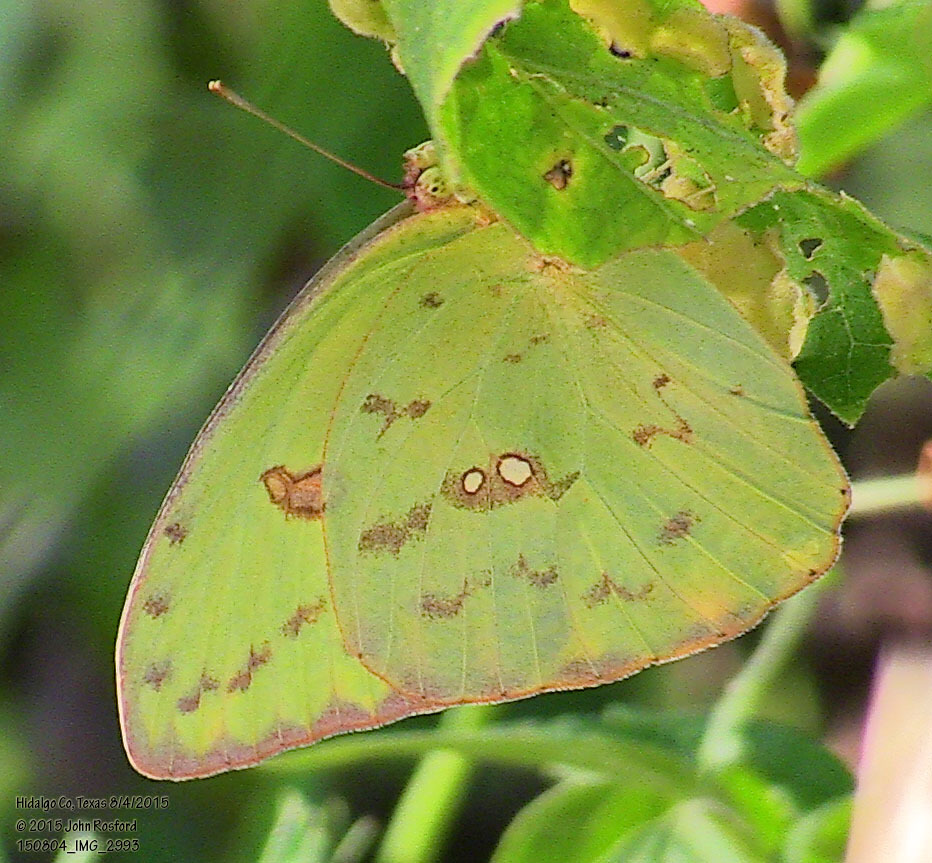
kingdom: Animalia
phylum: Arthropoda
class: Insecta
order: Lepidoptera
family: Pieridae
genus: Phoebis
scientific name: Phoebis sennae
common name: Cloudless sulphur
